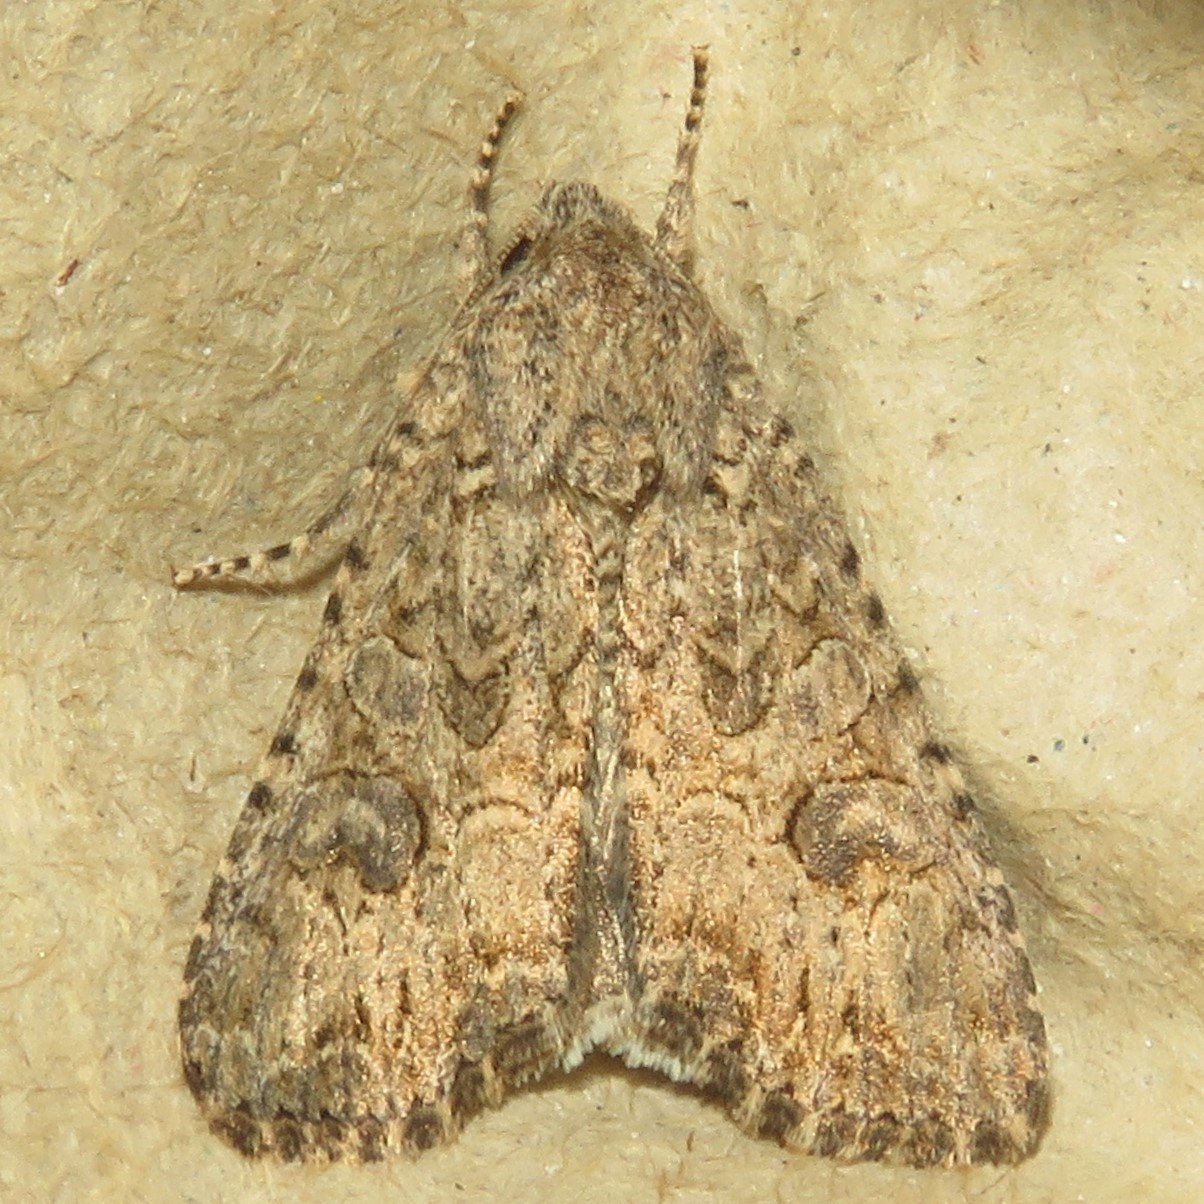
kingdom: Animalia
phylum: Arthropoda
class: Insecta
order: Lepidoptera
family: Noctuidae
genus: Anarta
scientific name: Anarta trifolii
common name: Clover cutworm moth
